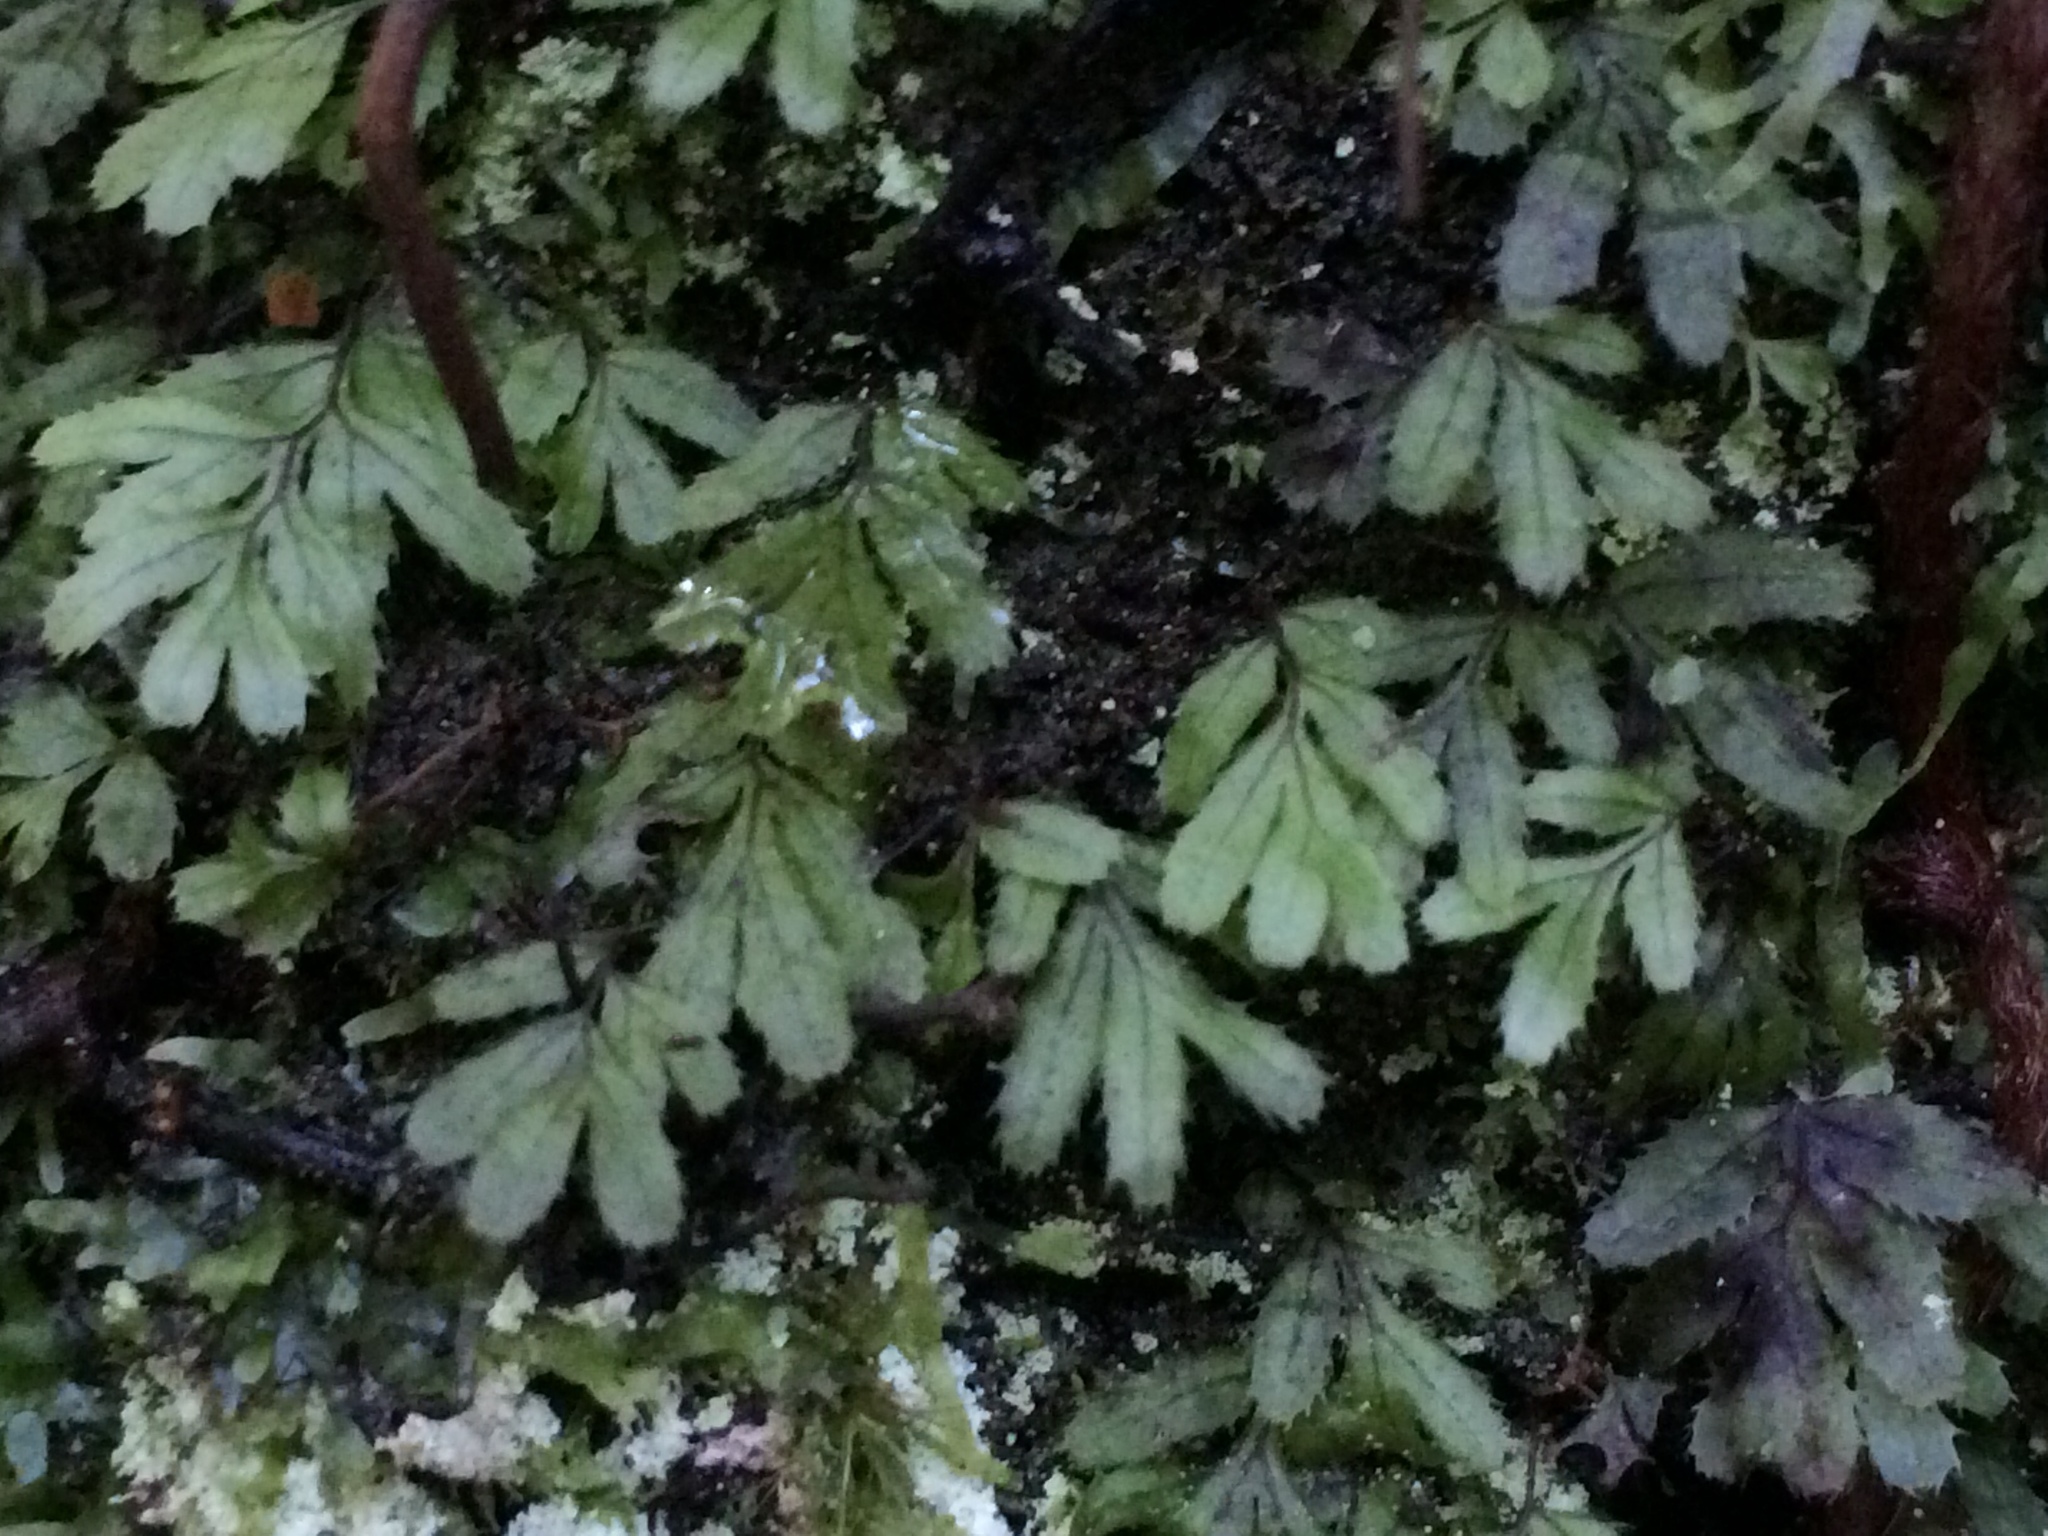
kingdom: Plantae
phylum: Tracheophyta
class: Polypodiopsida
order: Hymenophyllales
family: Hymenophyllaceae
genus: Hymenophyllum
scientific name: Hymenophyllum revolutum
